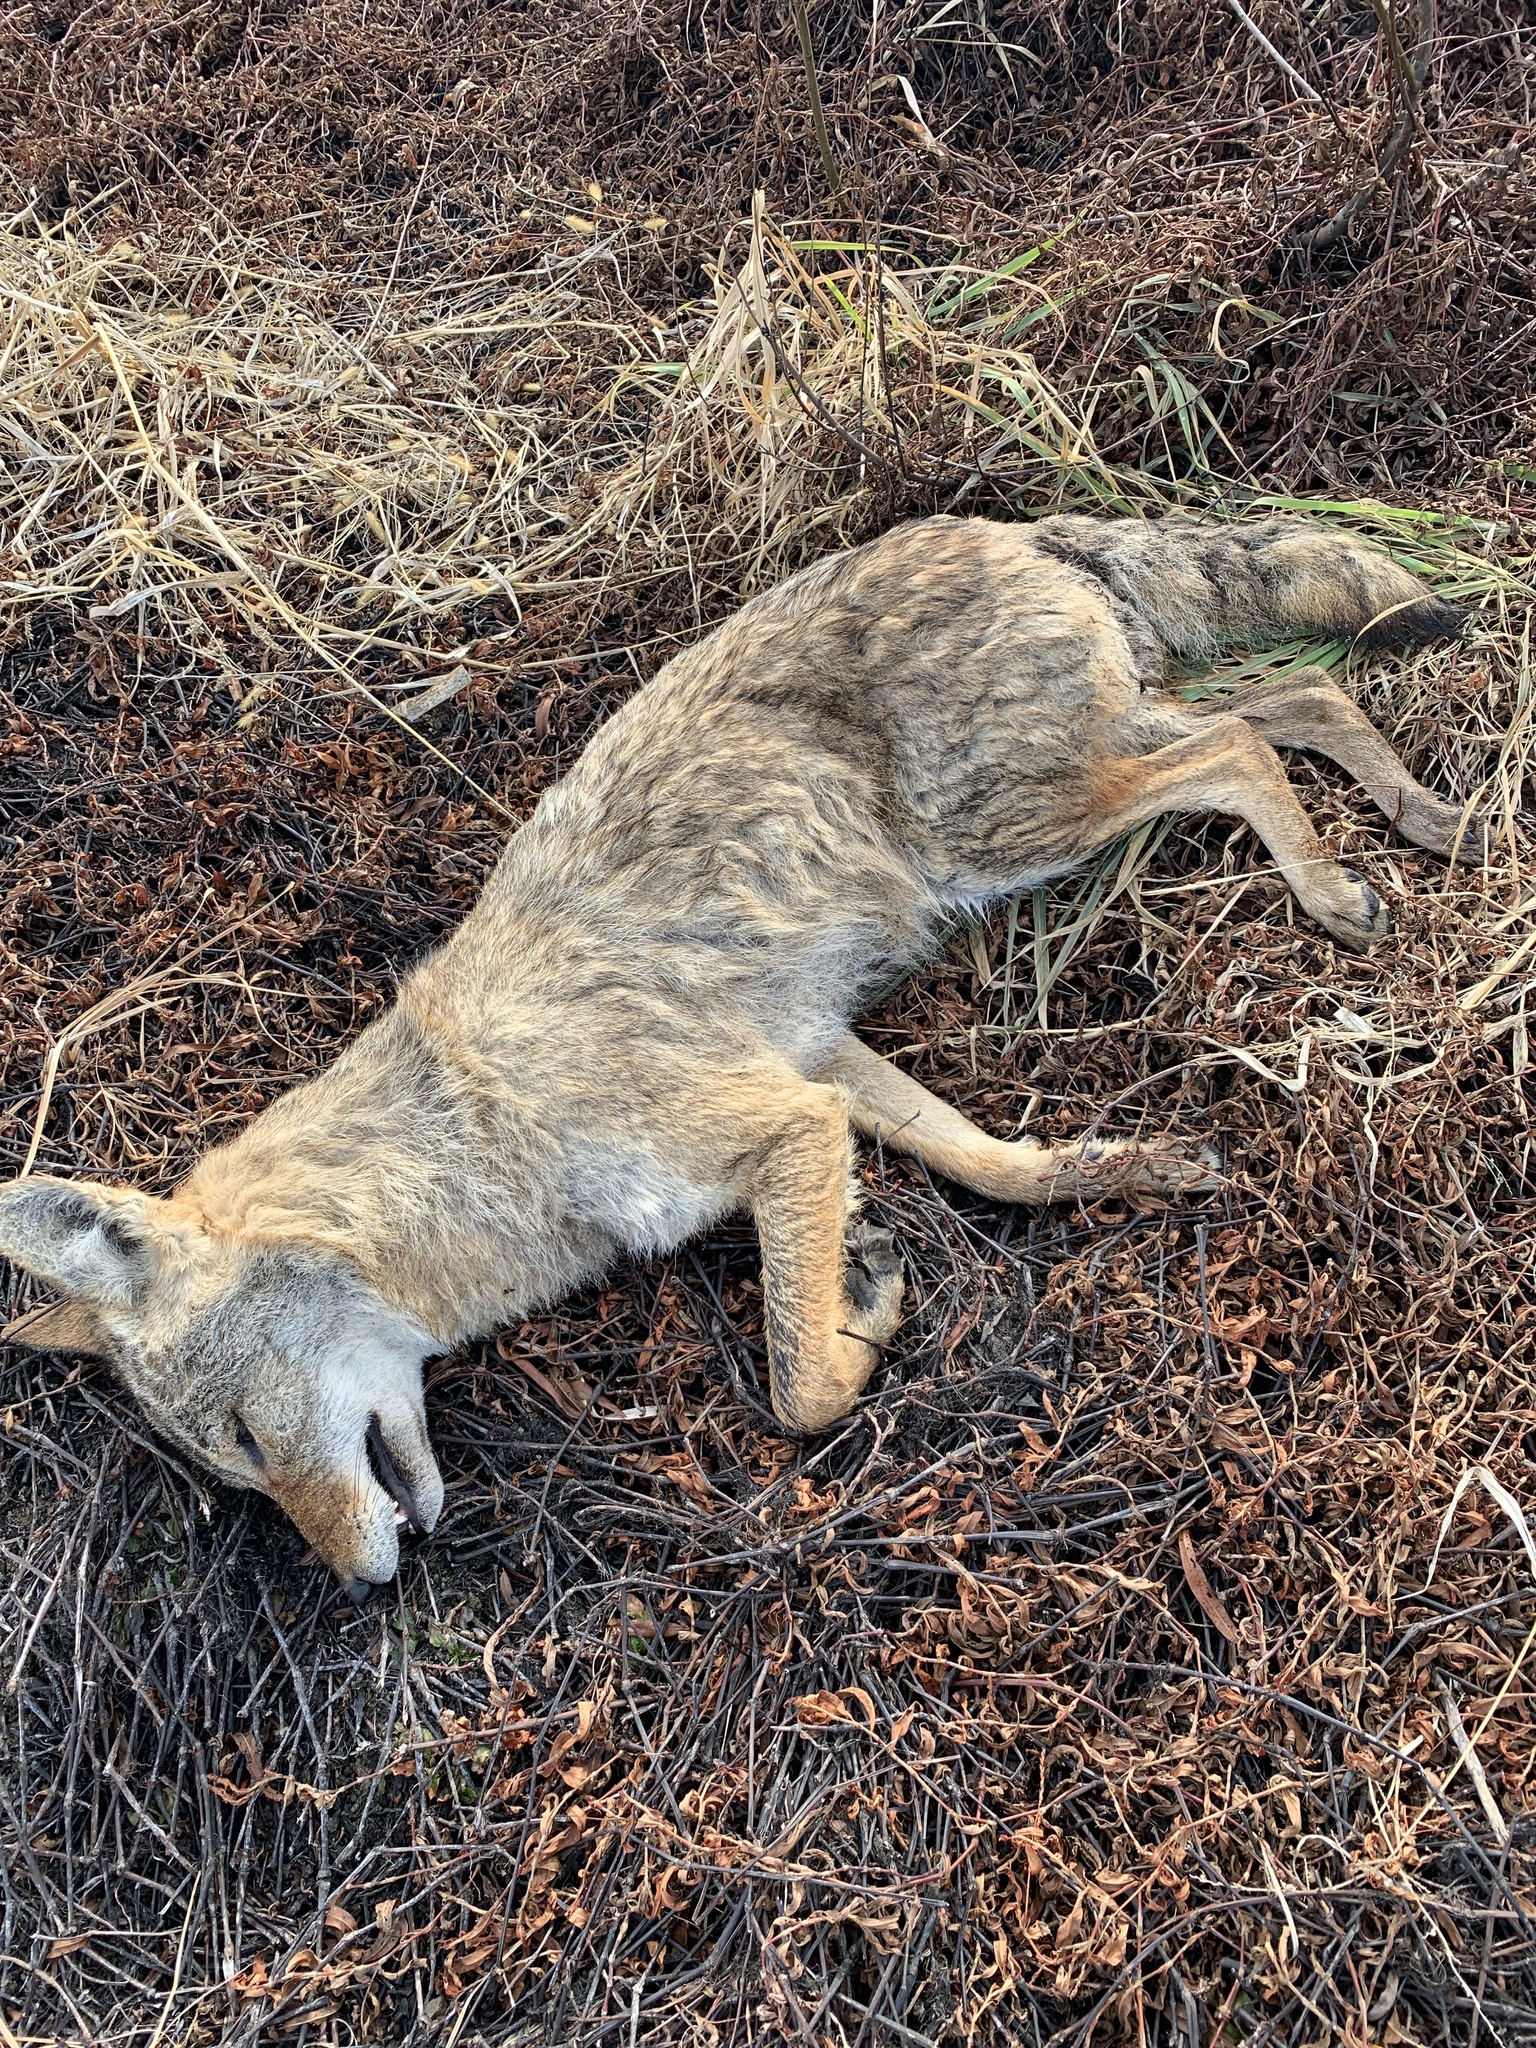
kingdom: Animalia
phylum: Chordata
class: Mammalia
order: Carnivora
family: Canidae
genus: Canis
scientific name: Canis latrans
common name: Coyote
